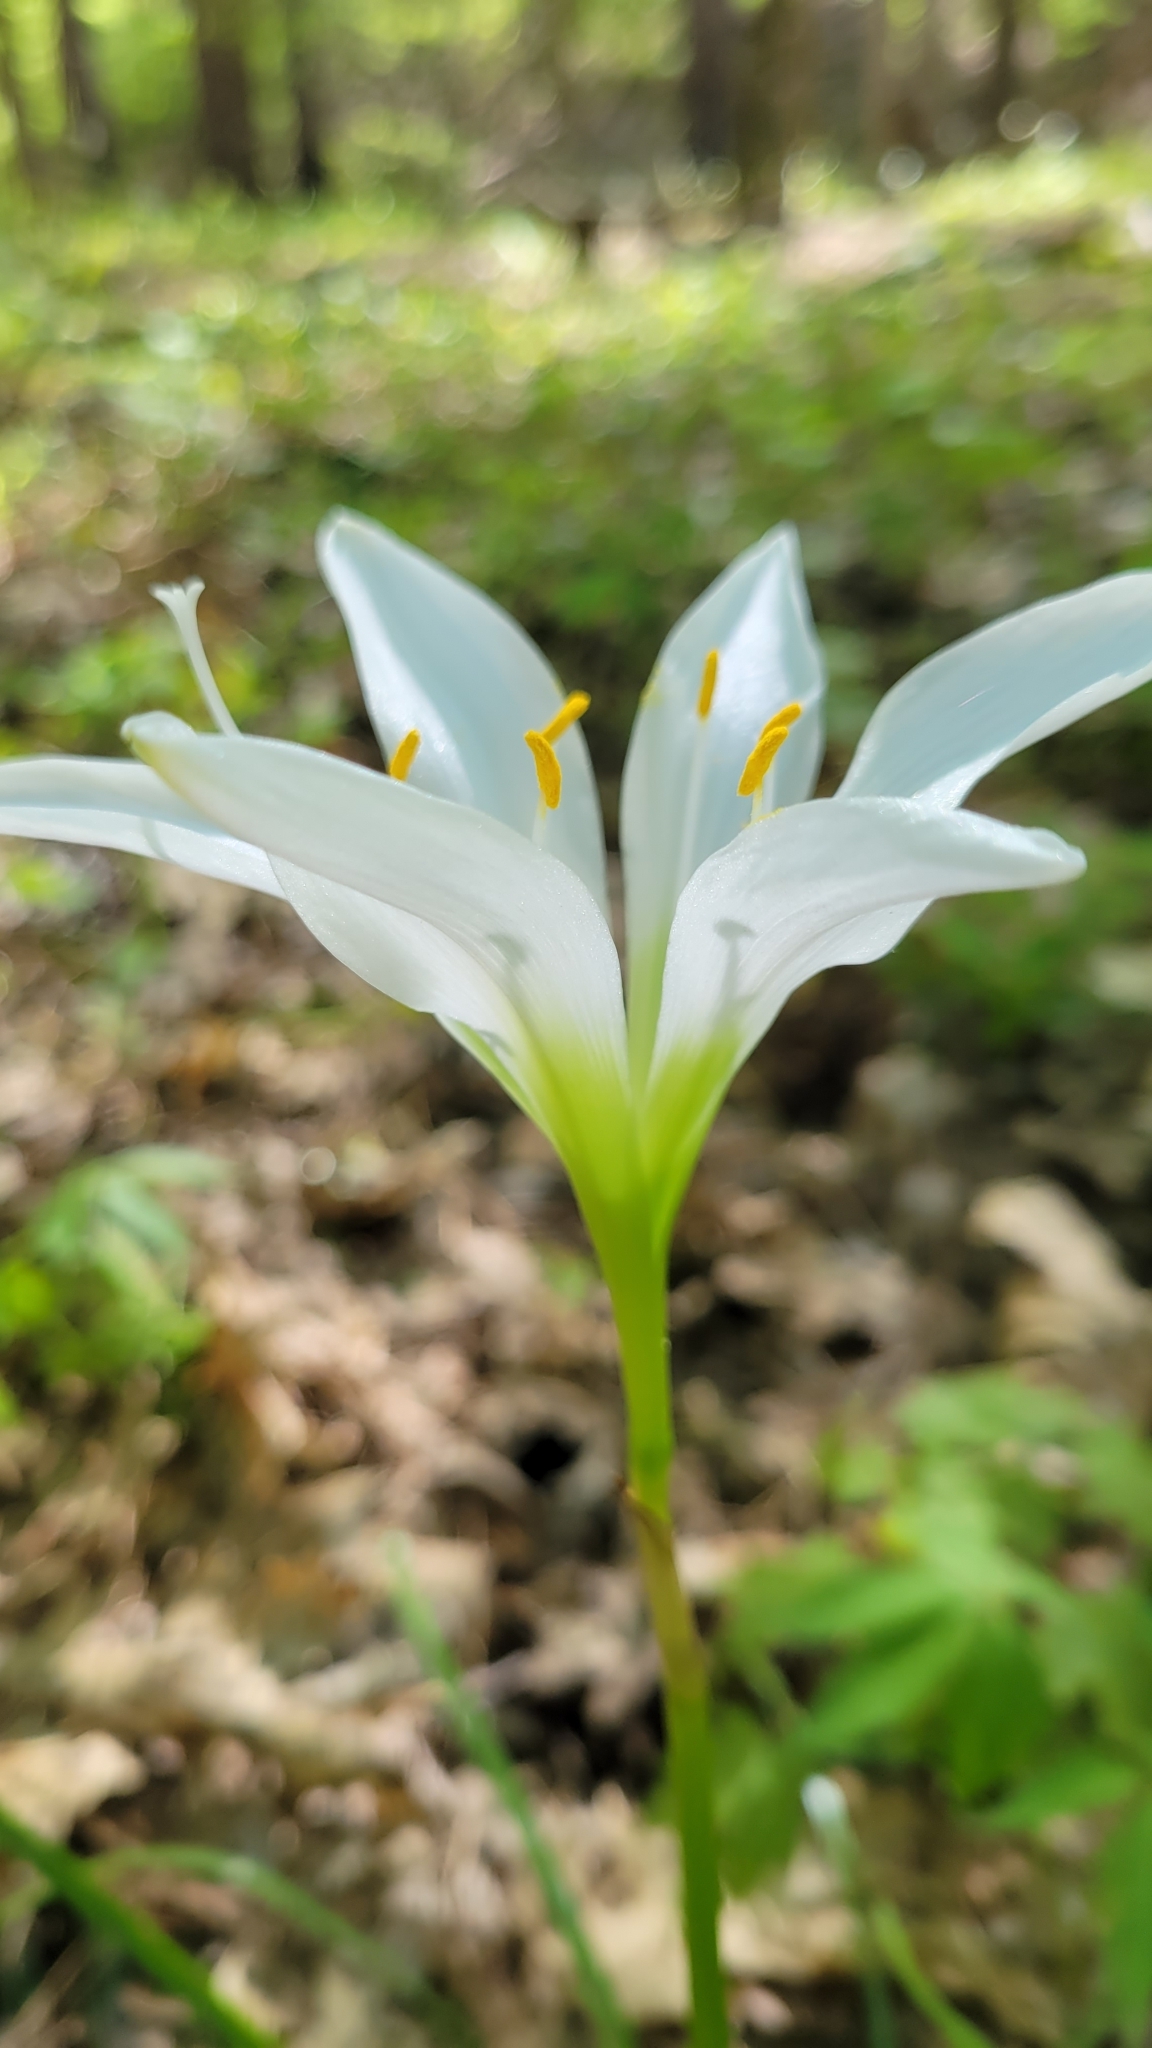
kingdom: Plantae
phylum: Tracheophyta
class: Liliopsida
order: Asparagales
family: Amaryllidaceae
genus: Zephyranthes
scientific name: Zephyranthes atamasco
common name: Atamasco lily
